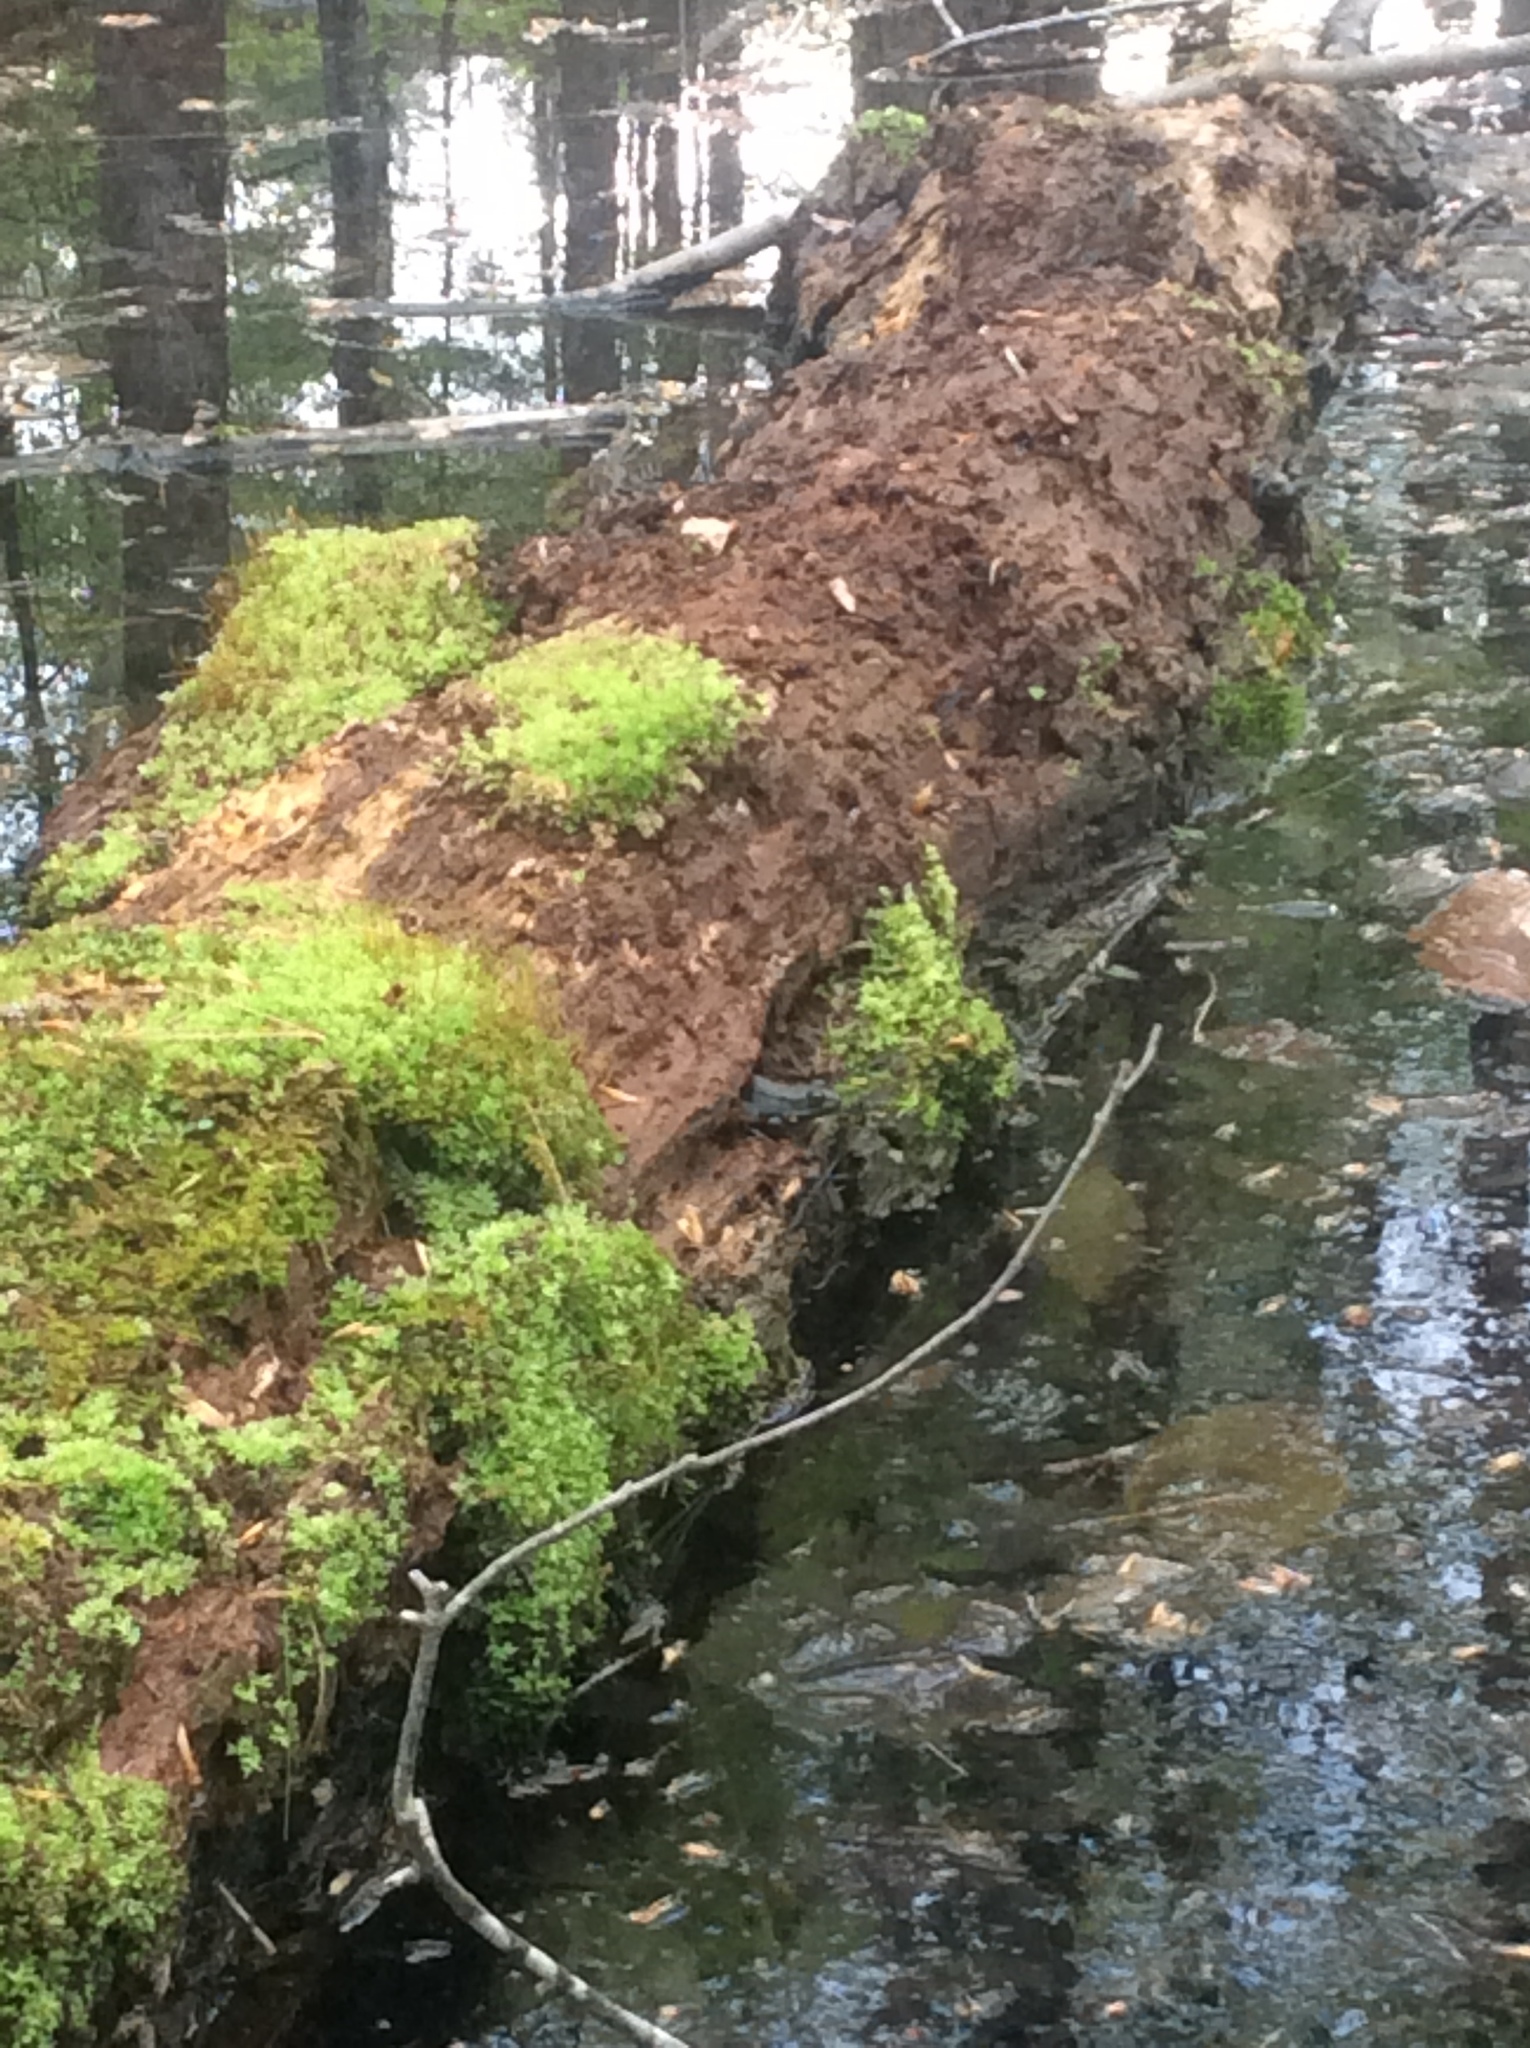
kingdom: Animalia
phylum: Chordata
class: Amphibia
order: Anura
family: Ranidae
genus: Lithobates
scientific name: Lithobates clamitans
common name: Green frog
